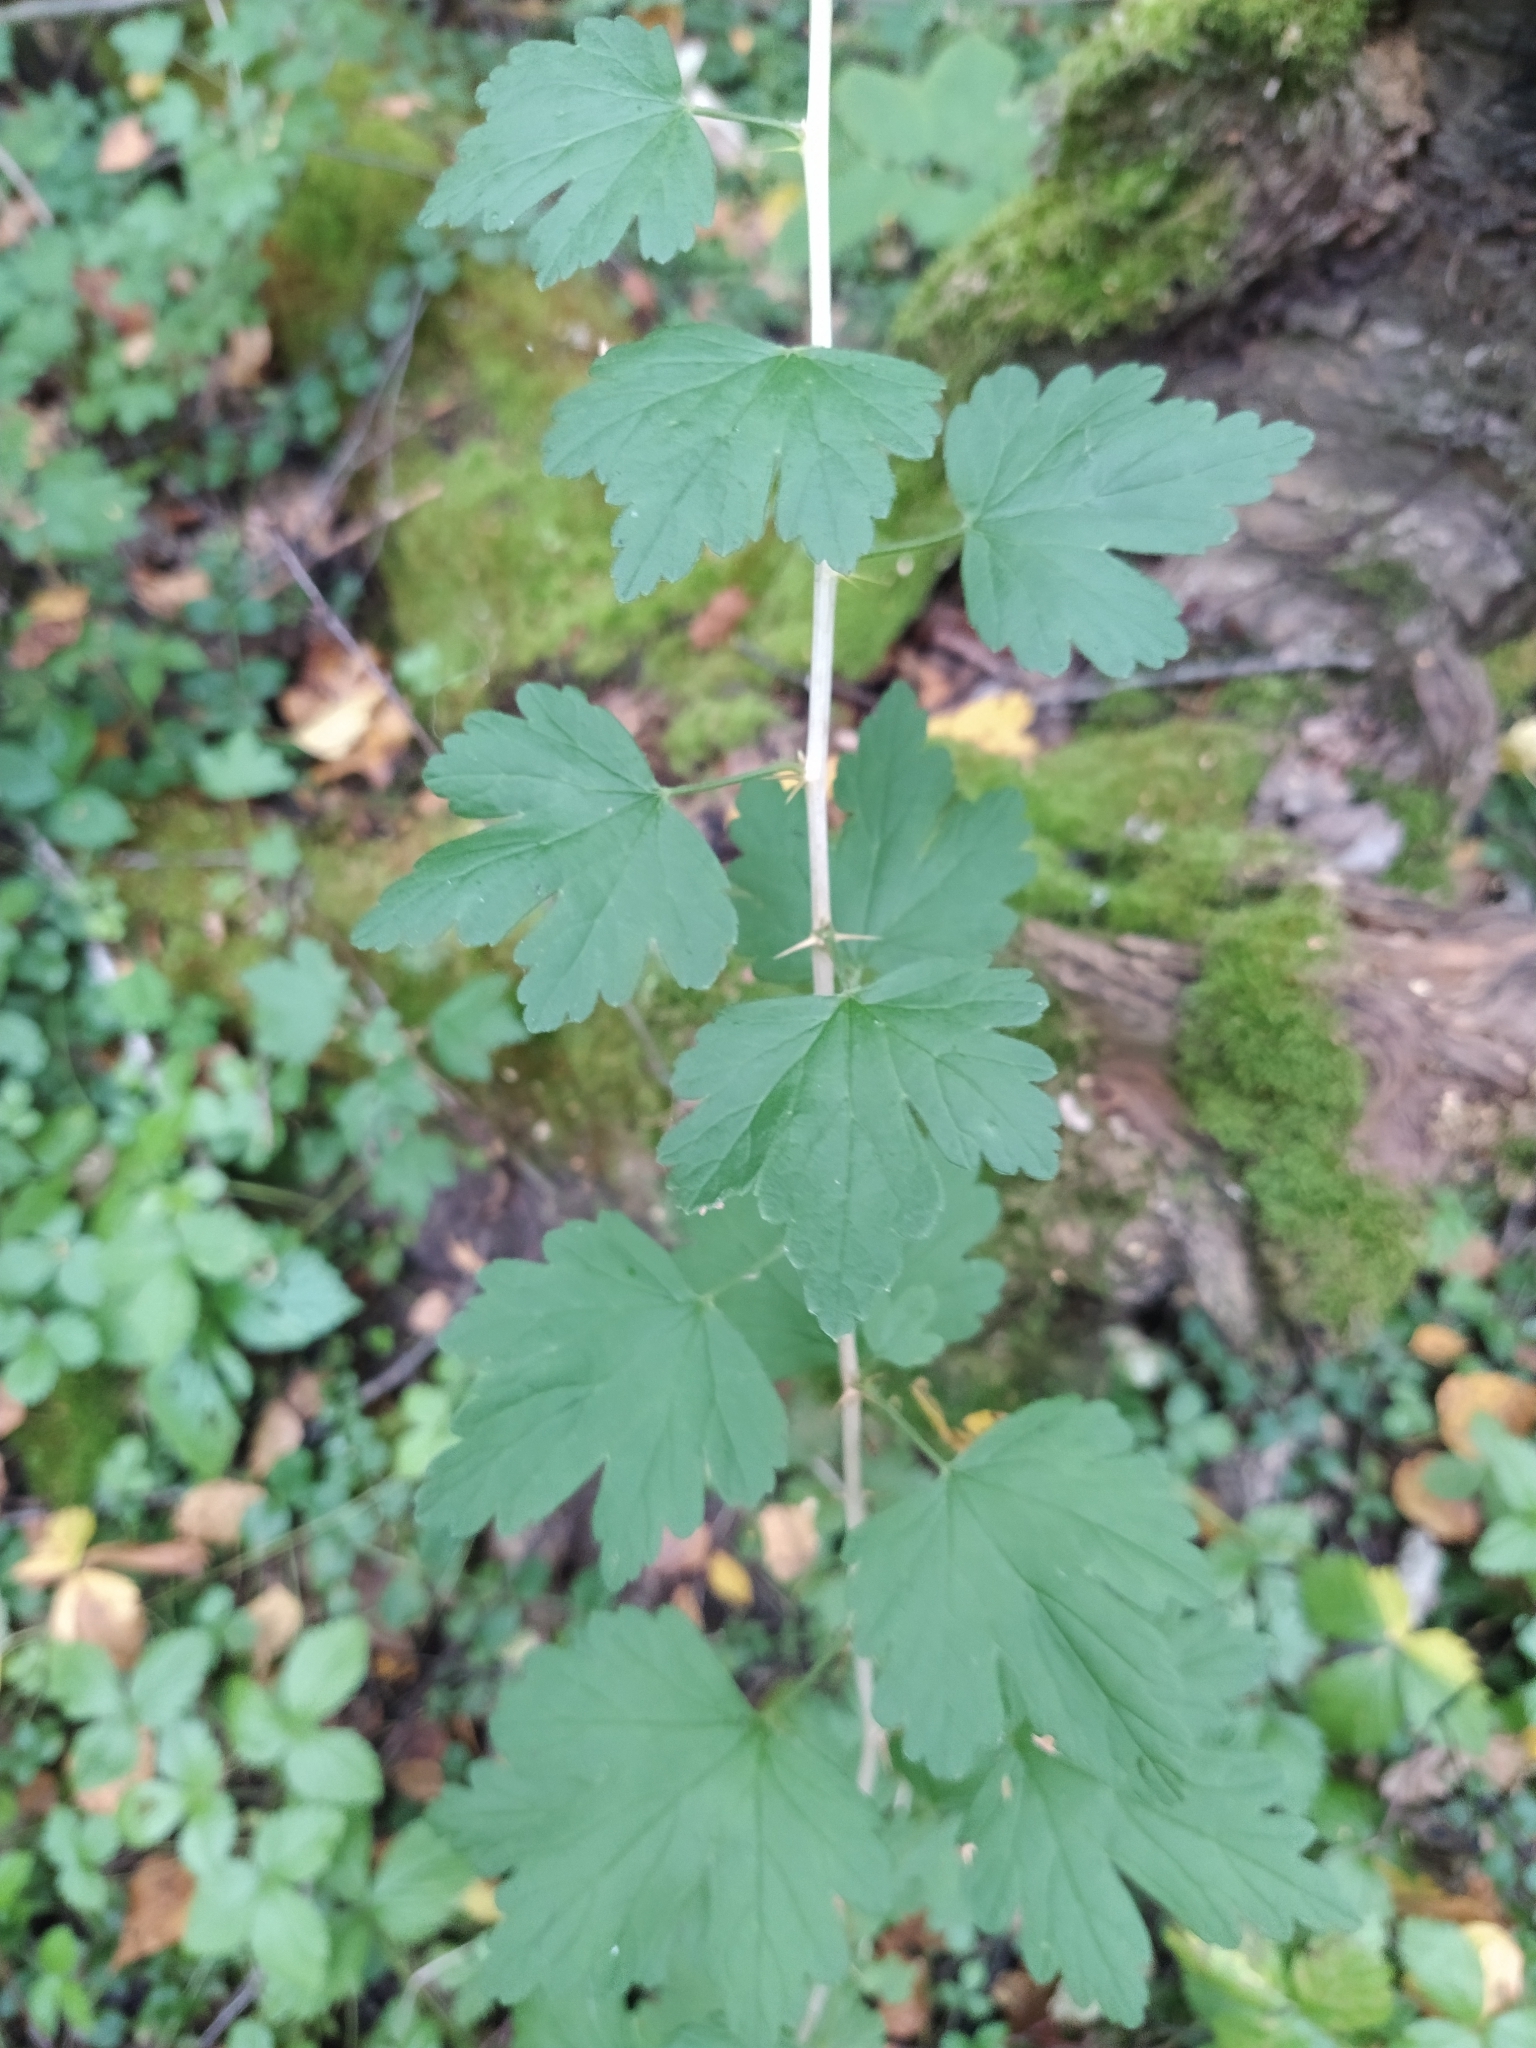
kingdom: Plantae
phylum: Tracheophyta
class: Magnoliopsida
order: Saxifragales
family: Grossulariaceae
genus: Ribes
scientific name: Ribes uva-crispa
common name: Gooseberry
